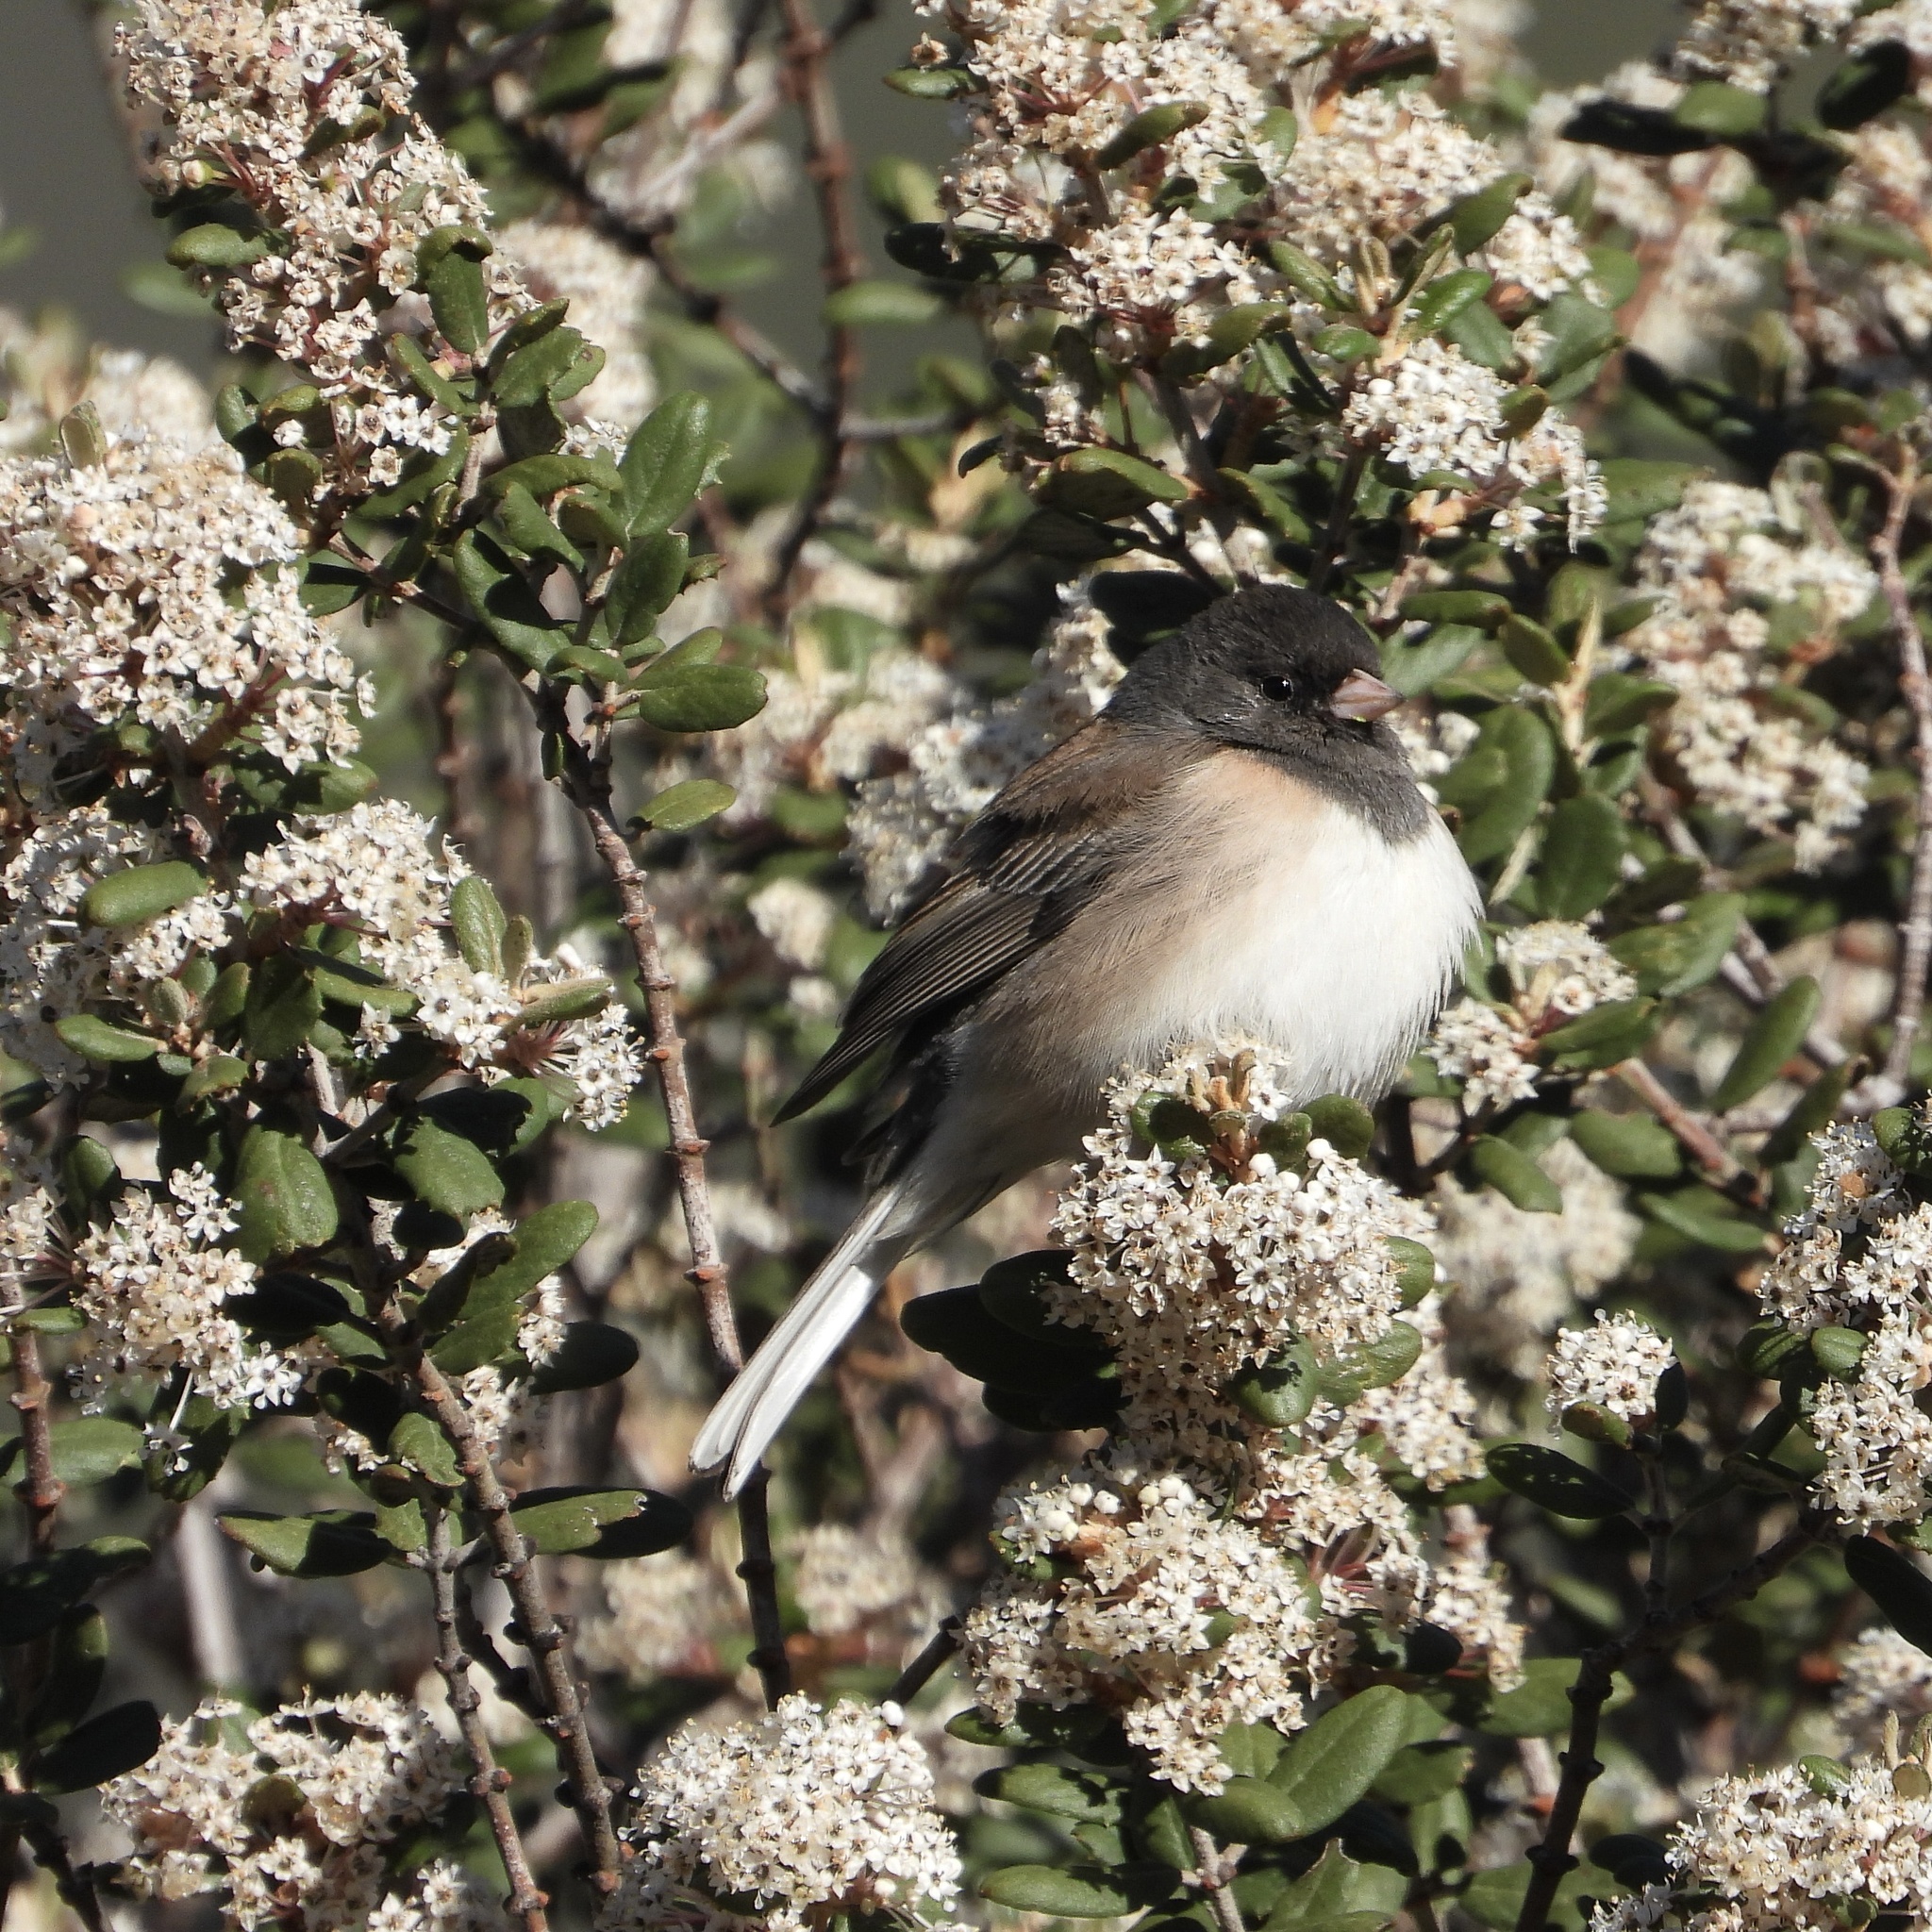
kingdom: Animalia
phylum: Chordata
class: Aves
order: Passeriformes
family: Passerellidae
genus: Junco
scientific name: Junco hyemalis
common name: Dark-eyed junco
